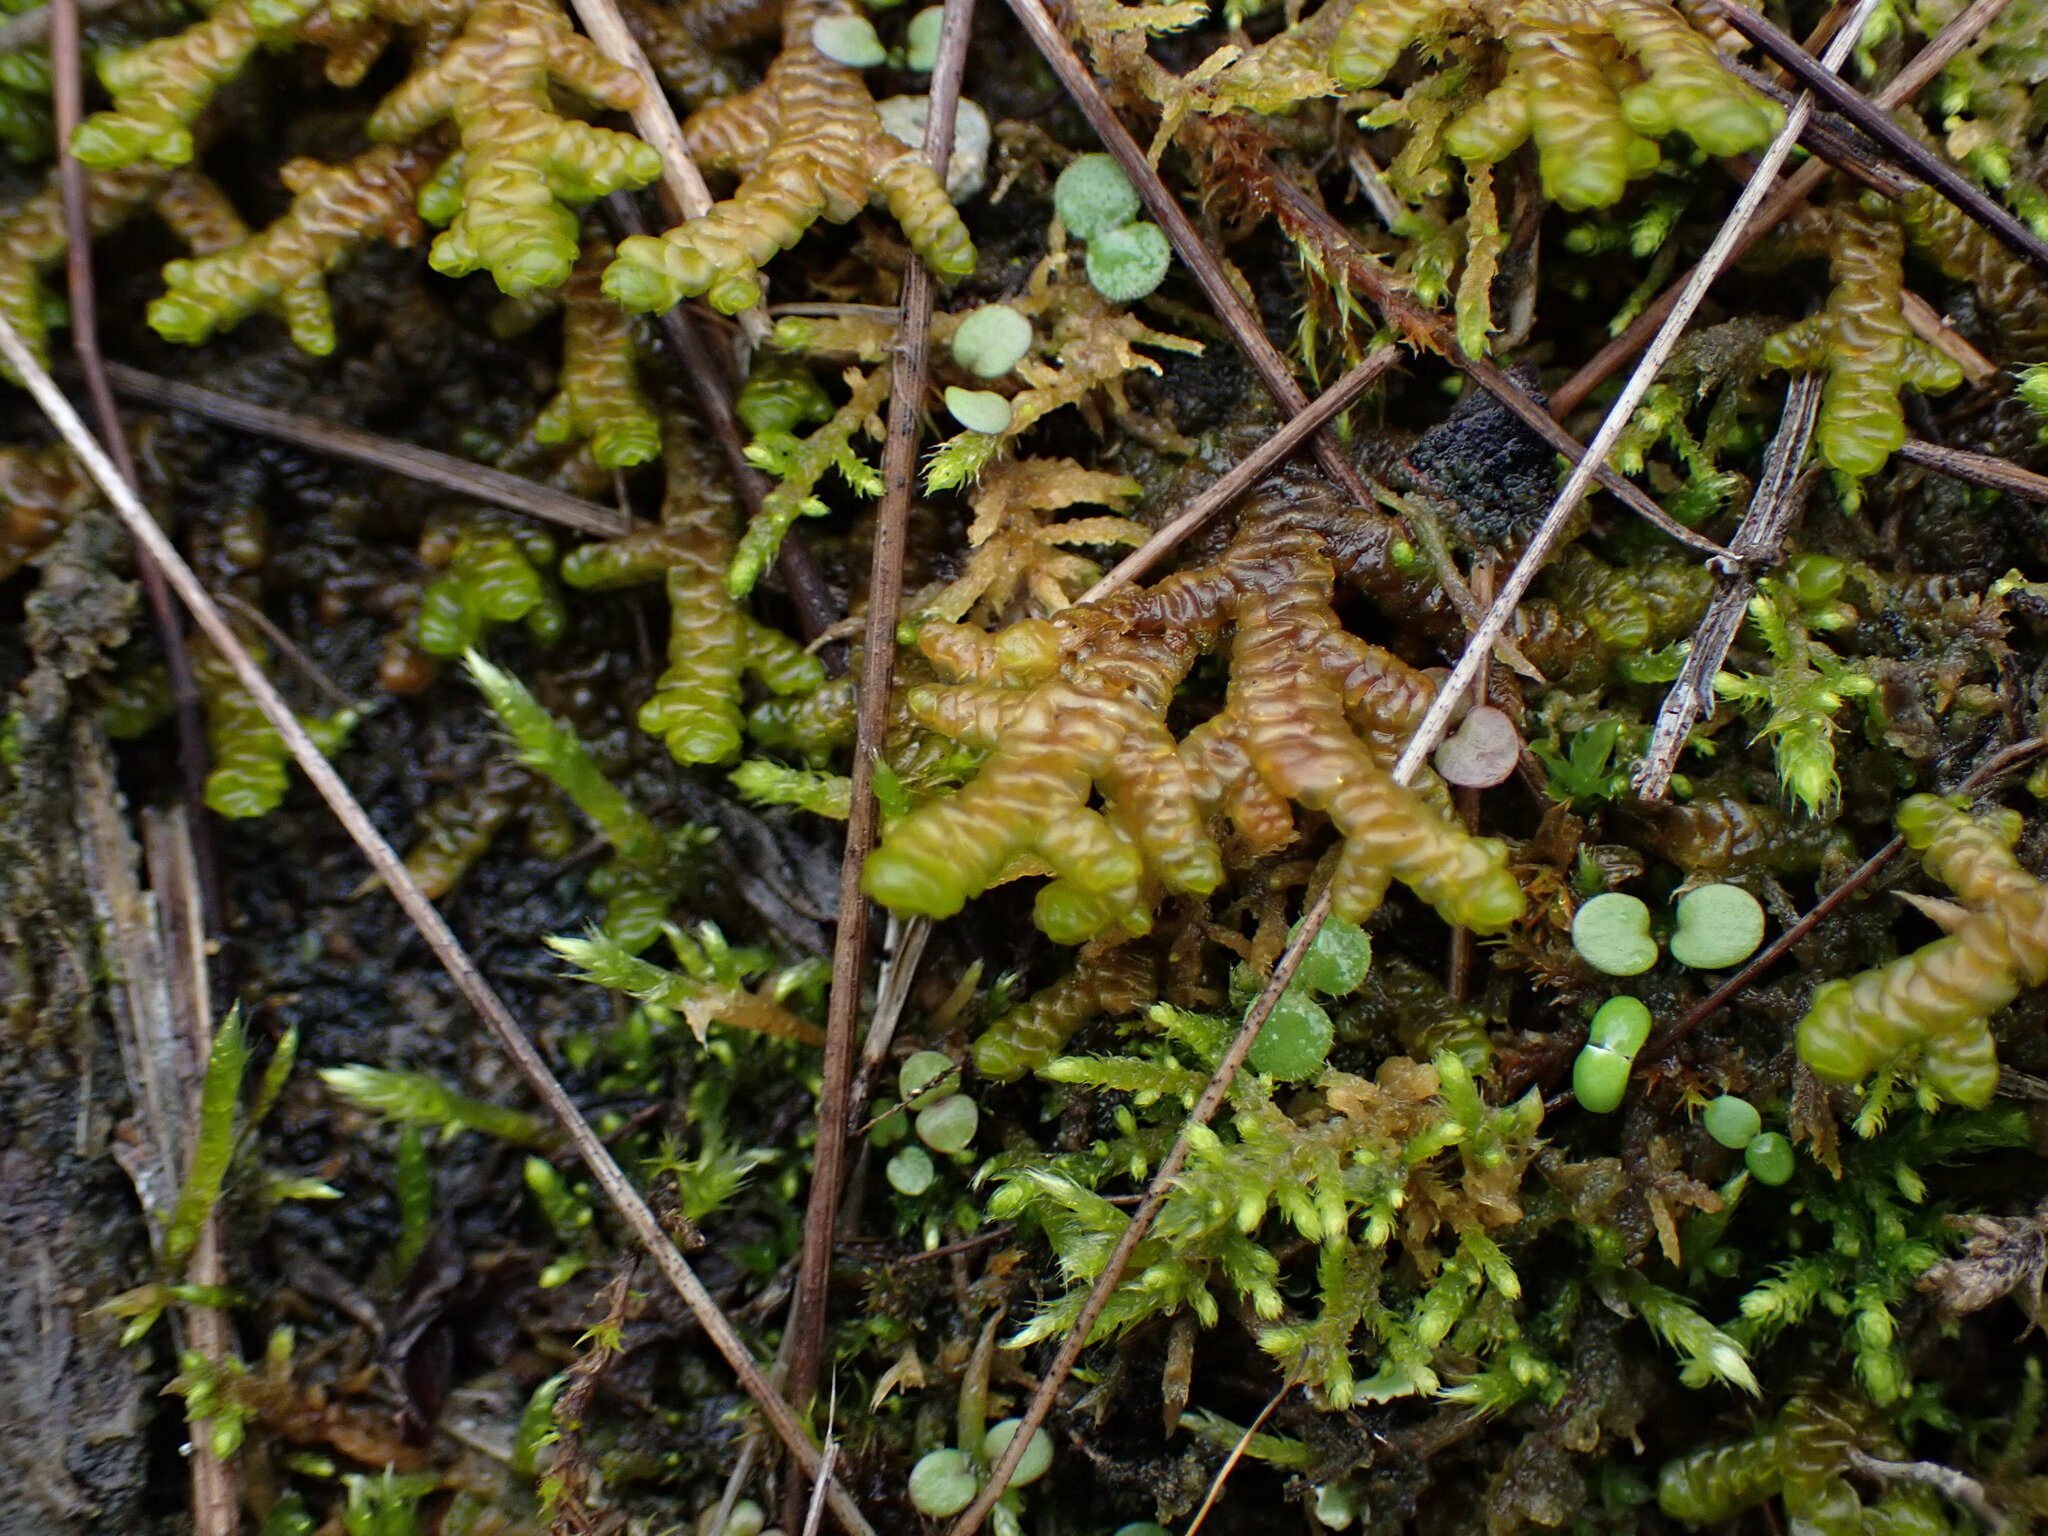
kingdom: Plantae
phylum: Marchantiophyta
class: Jungermanniopsida
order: Porellales
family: Porellaceae
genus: Porella
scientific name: Porella navicularis
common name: Tree ruffle liverwort
